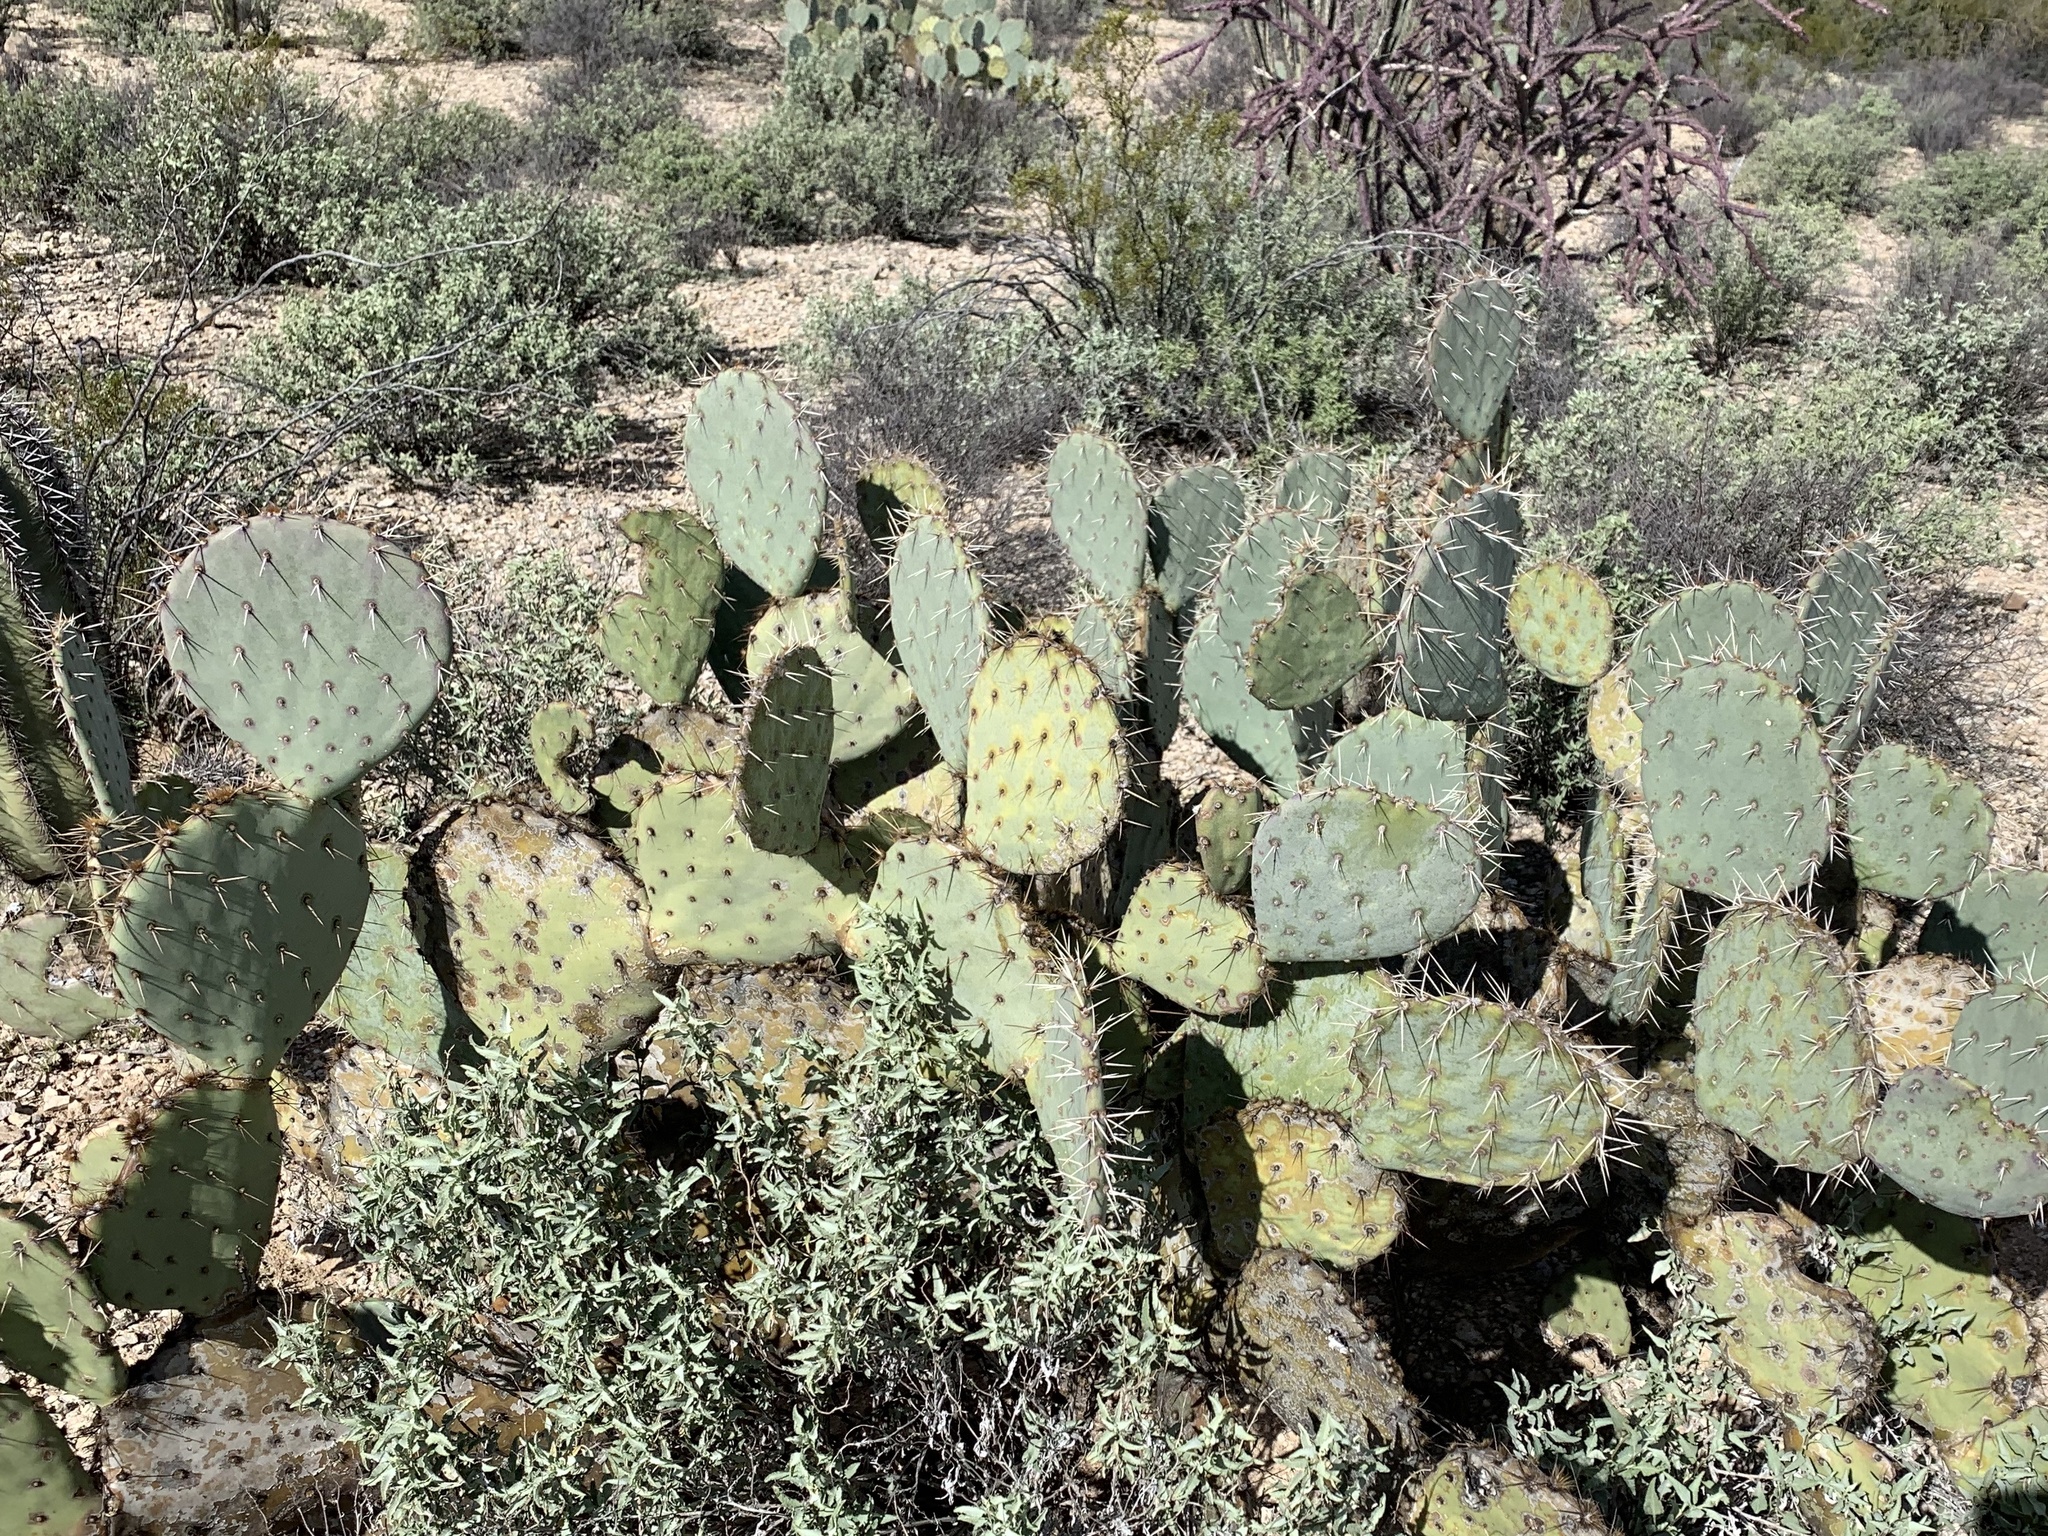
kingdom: Plantae
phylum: Tracheophyta
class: Magnoliopsida
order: Caryophyllales
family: Cactaceae
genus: Opuntia
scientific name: Opuntia engelmannii
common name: Cactus-apple
